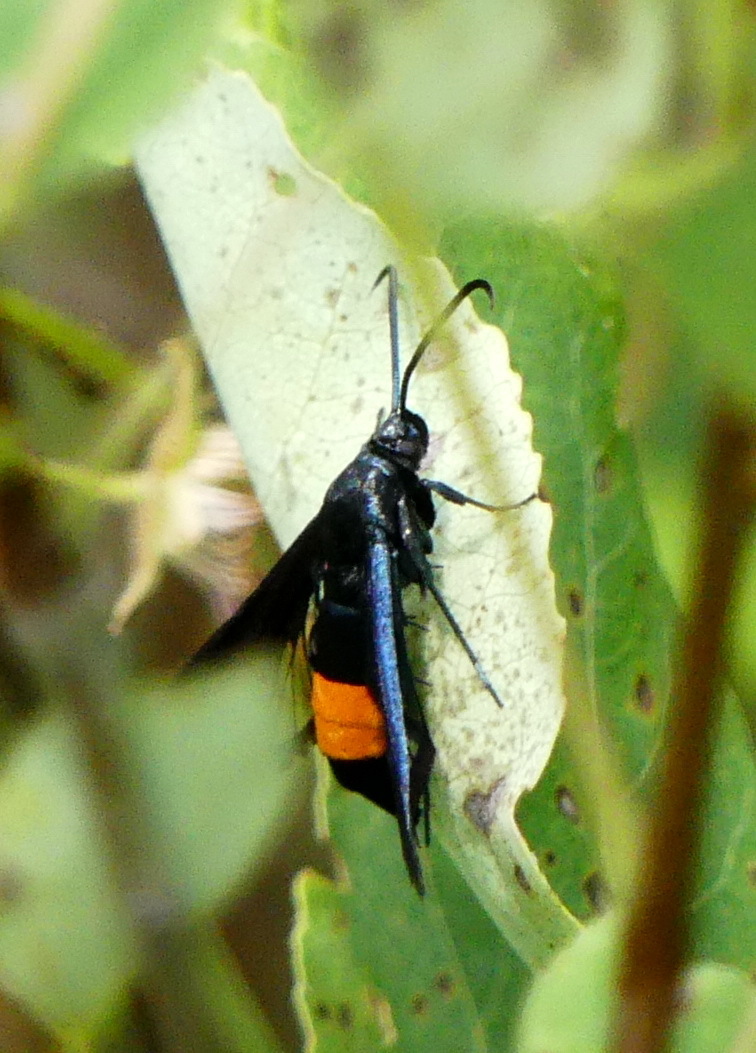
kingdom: Animalia
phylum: Arthropoda
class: Insecta
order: Lepidoptera
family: Sesiidae
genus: Synanthedon
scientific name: Synanthedon exitiosa
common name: Peachtree borer moth
